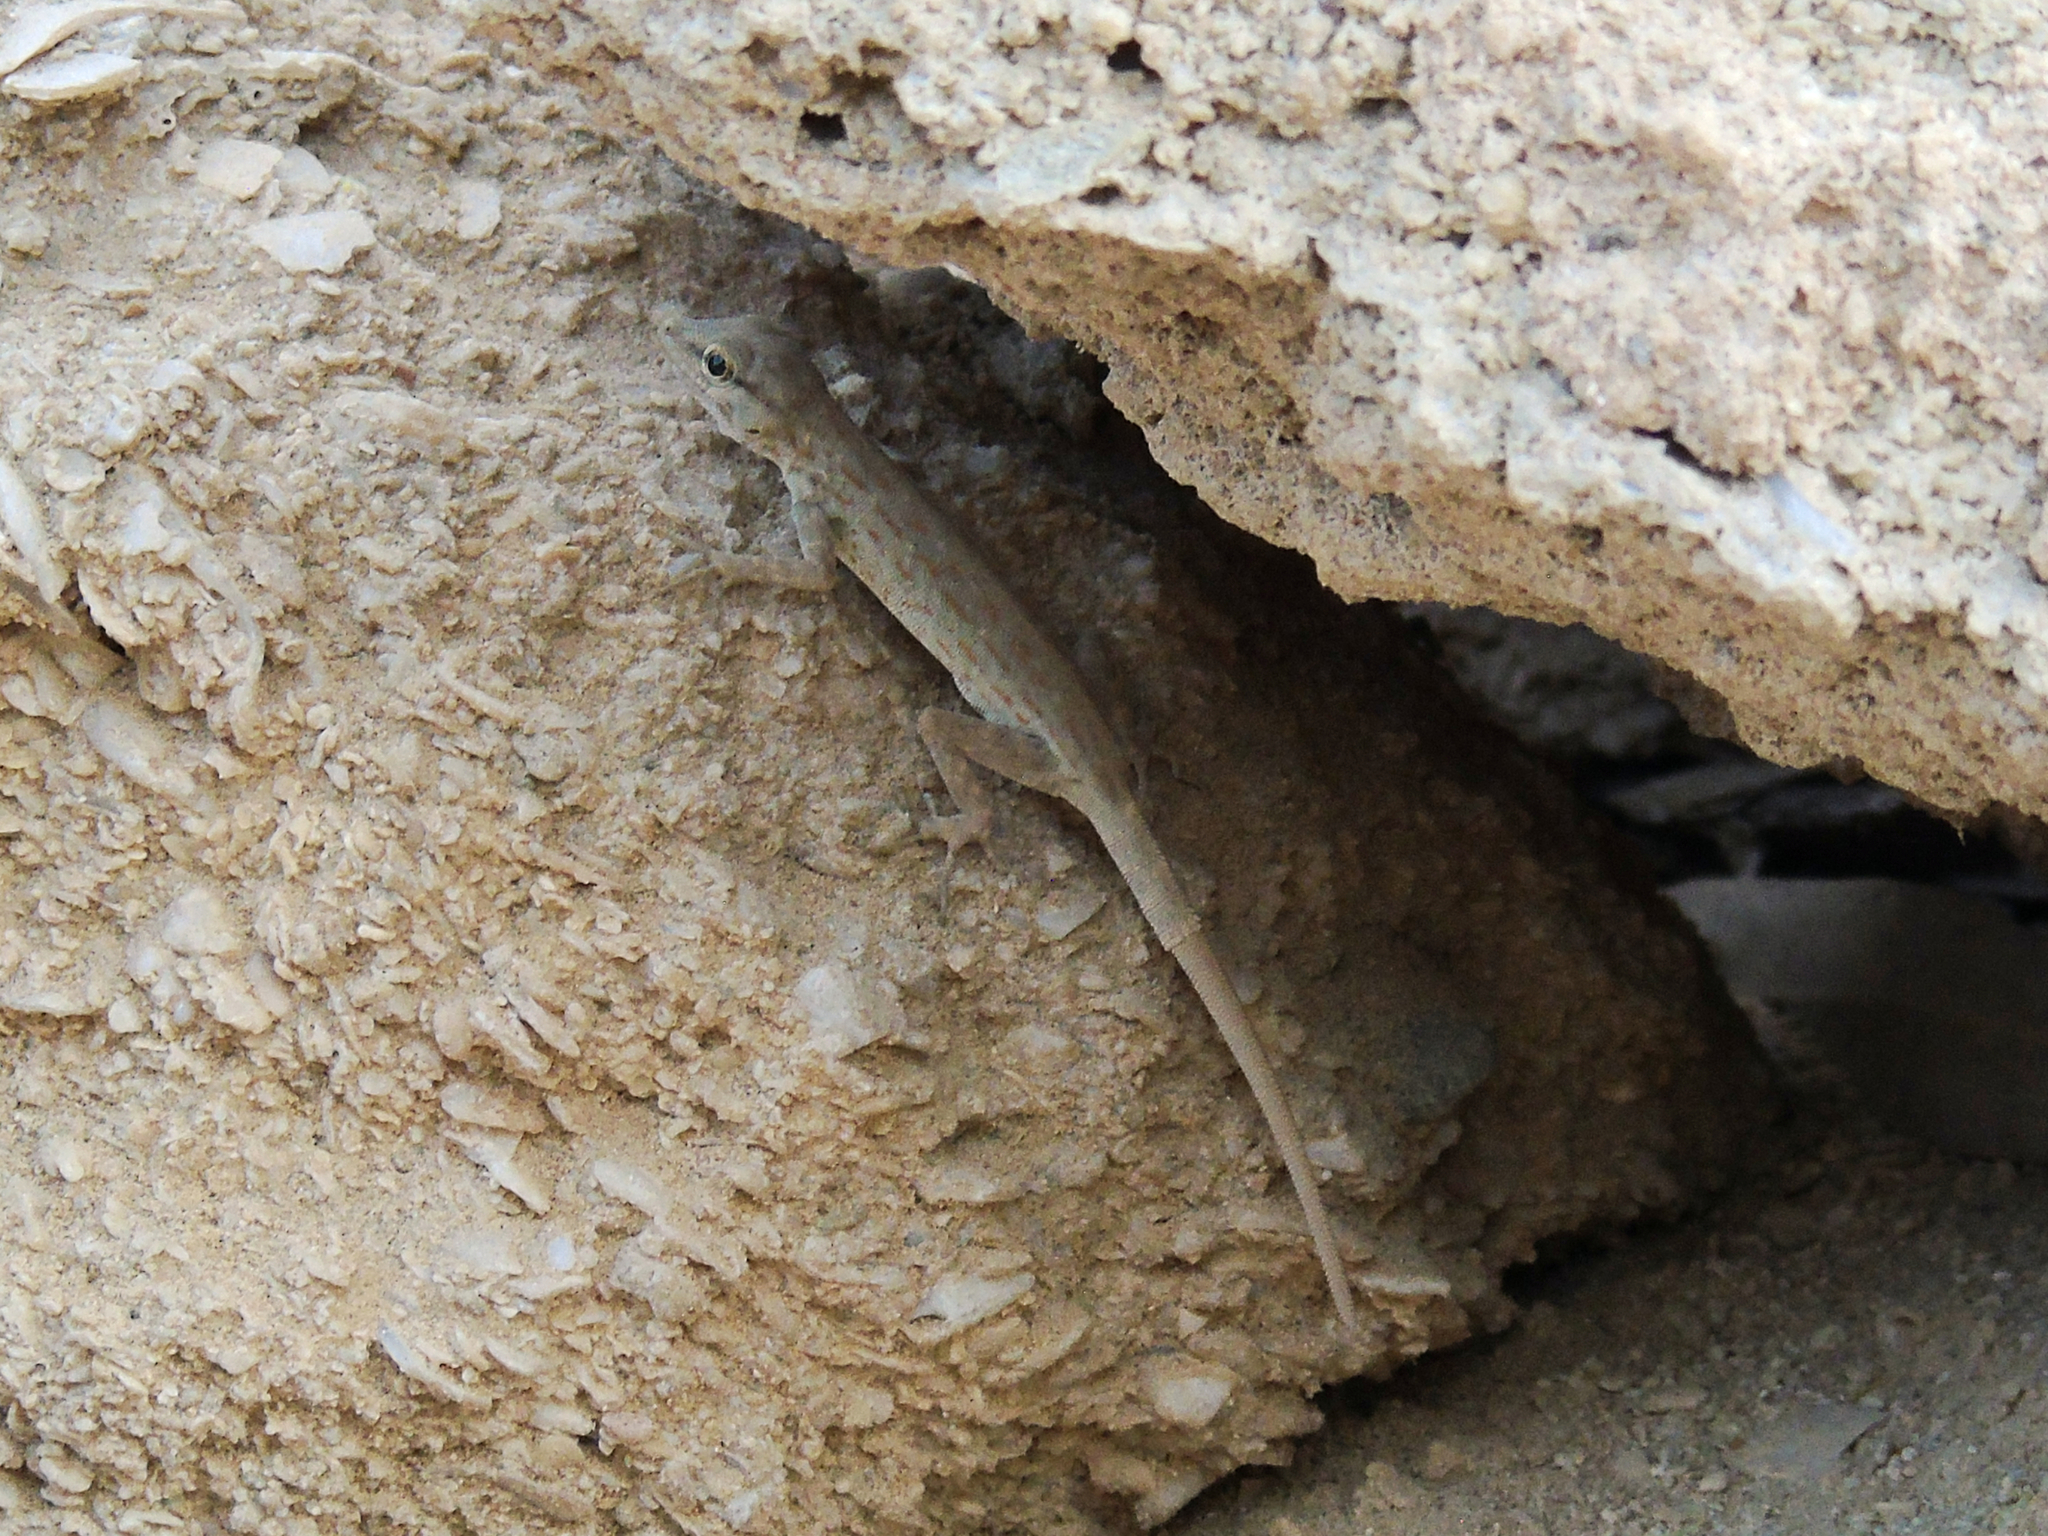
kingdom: Animalia
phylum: Chordata
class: Squamata
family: Sphaerodactylidae
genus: Pristurus
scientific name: Pristurus rupestris
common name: Blanford’s semaphore gecko
